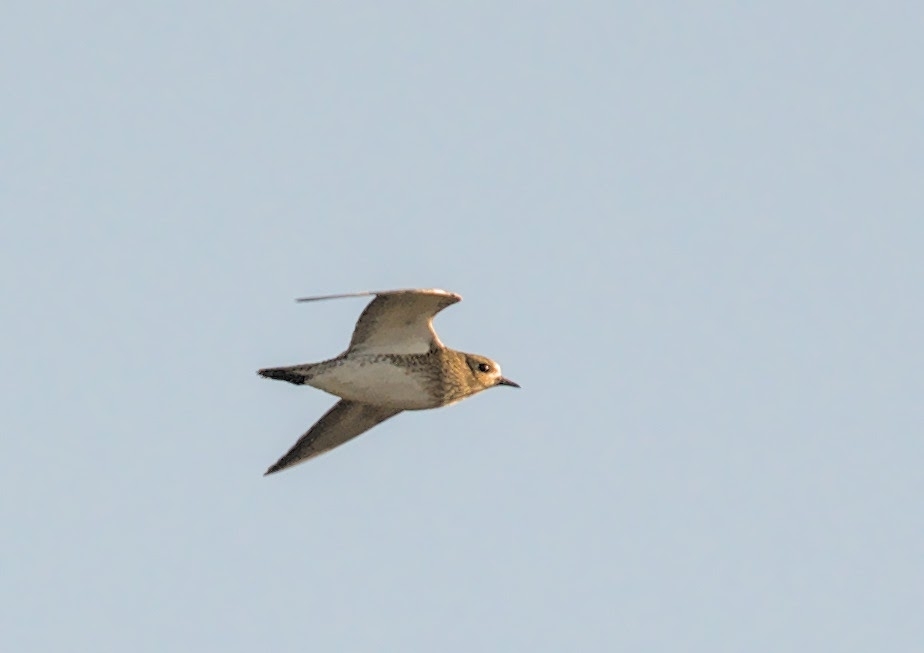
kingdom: Animalia
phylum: Chordata
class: Aves
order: Charadriiformes
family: Charadriidae
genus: Pluvialis
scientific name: Pluvialis apricaria
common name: European golden plover
